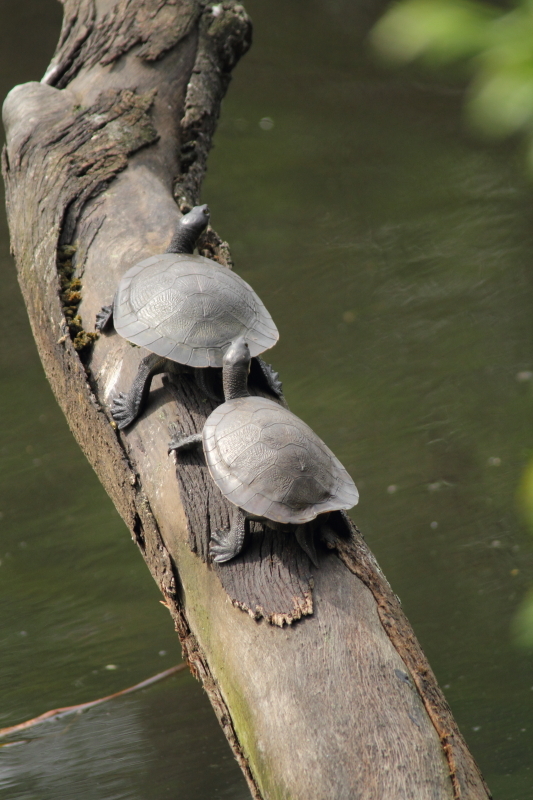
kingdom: Animalia
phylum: Chordata
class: Testudines
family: Chelidae
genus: Emydura
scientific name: Emydura macquarii
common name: Murray river turtle
